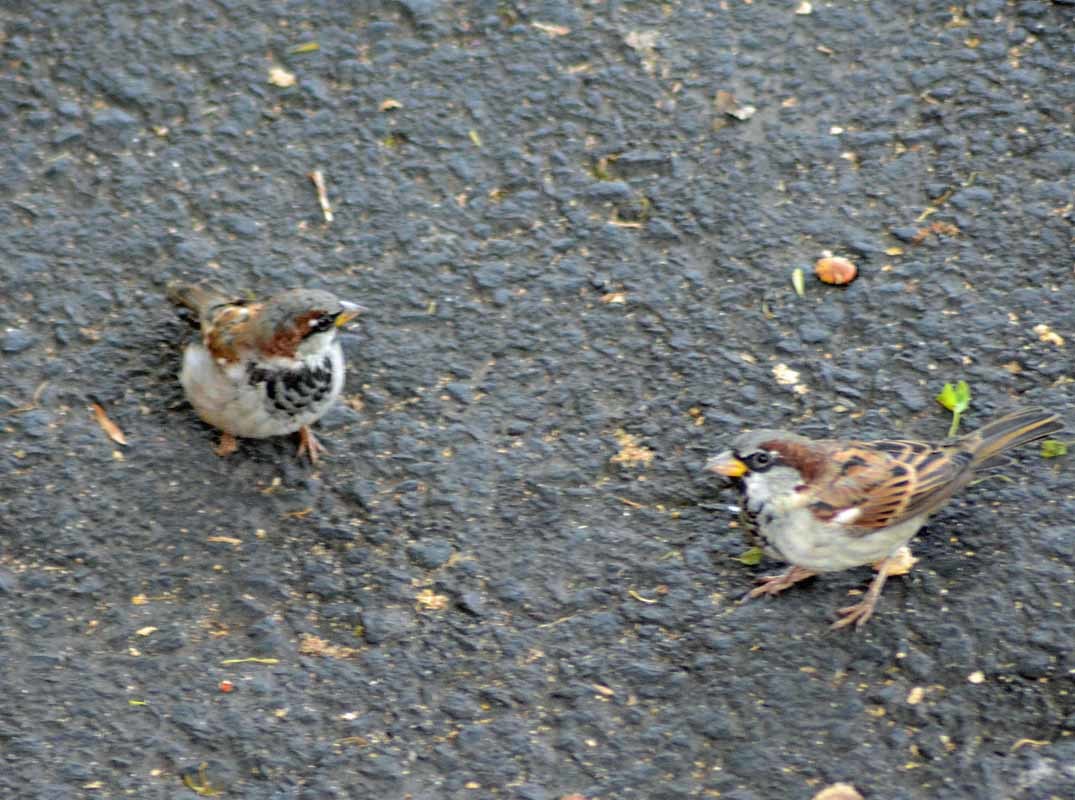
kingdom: Animalia
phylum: Chordata
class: Aves
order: Passeriformes
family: Passeridae
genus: Passer
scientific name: Passer domesticus
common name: House sparrow
